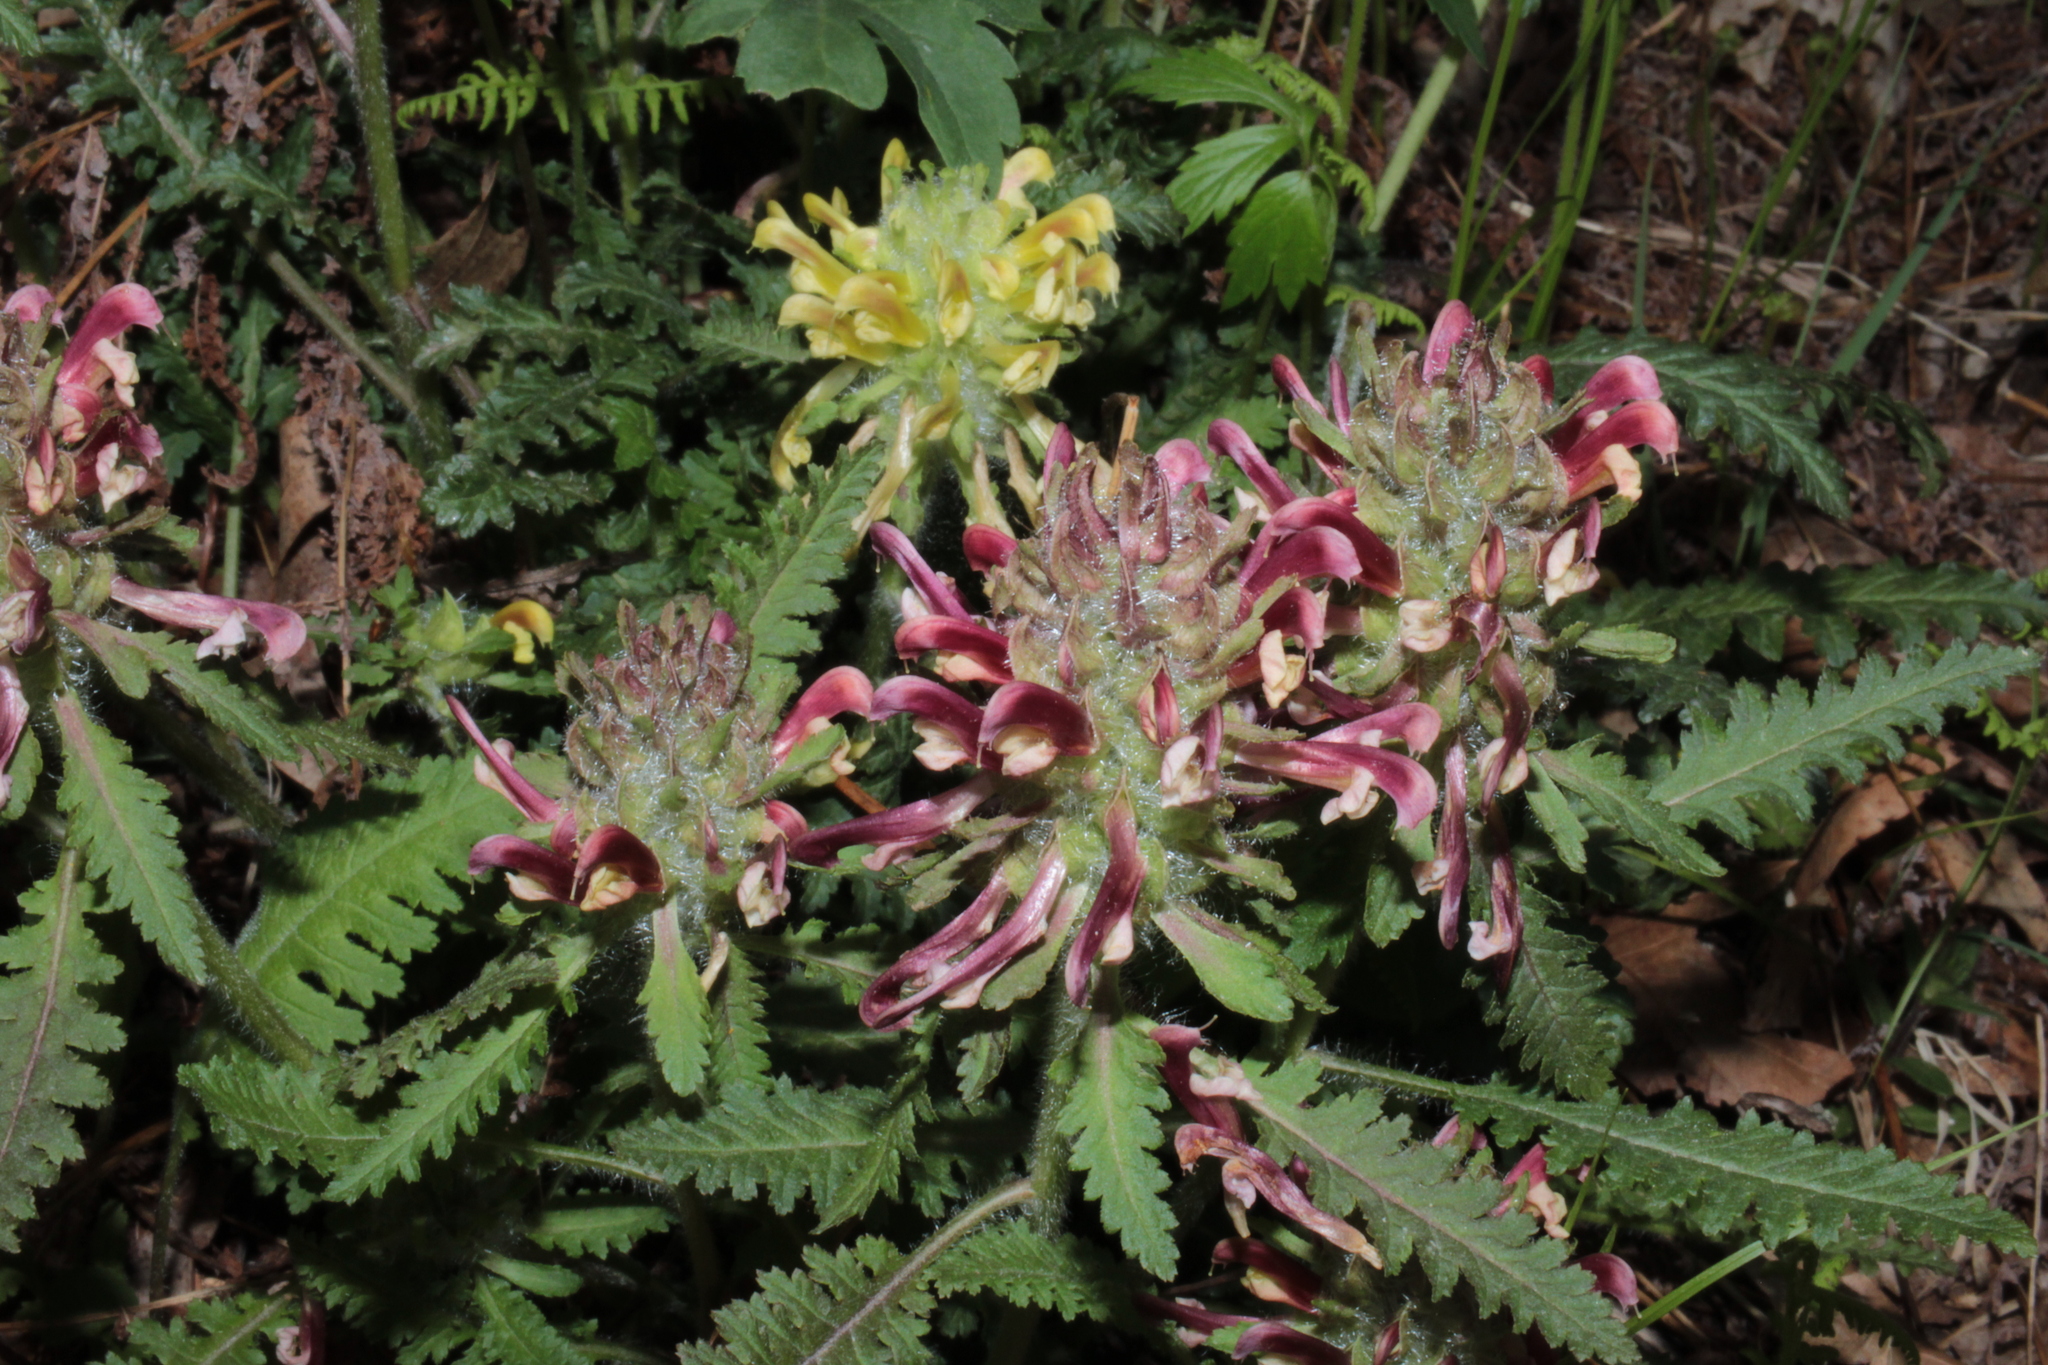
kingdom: Plantae
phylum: Tracheophyta
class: Magnoliopsida
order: Lamiales
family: Orobanchaceae
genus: Pedicularis
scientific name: Pedicularis canadensis
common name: Early lousewort
